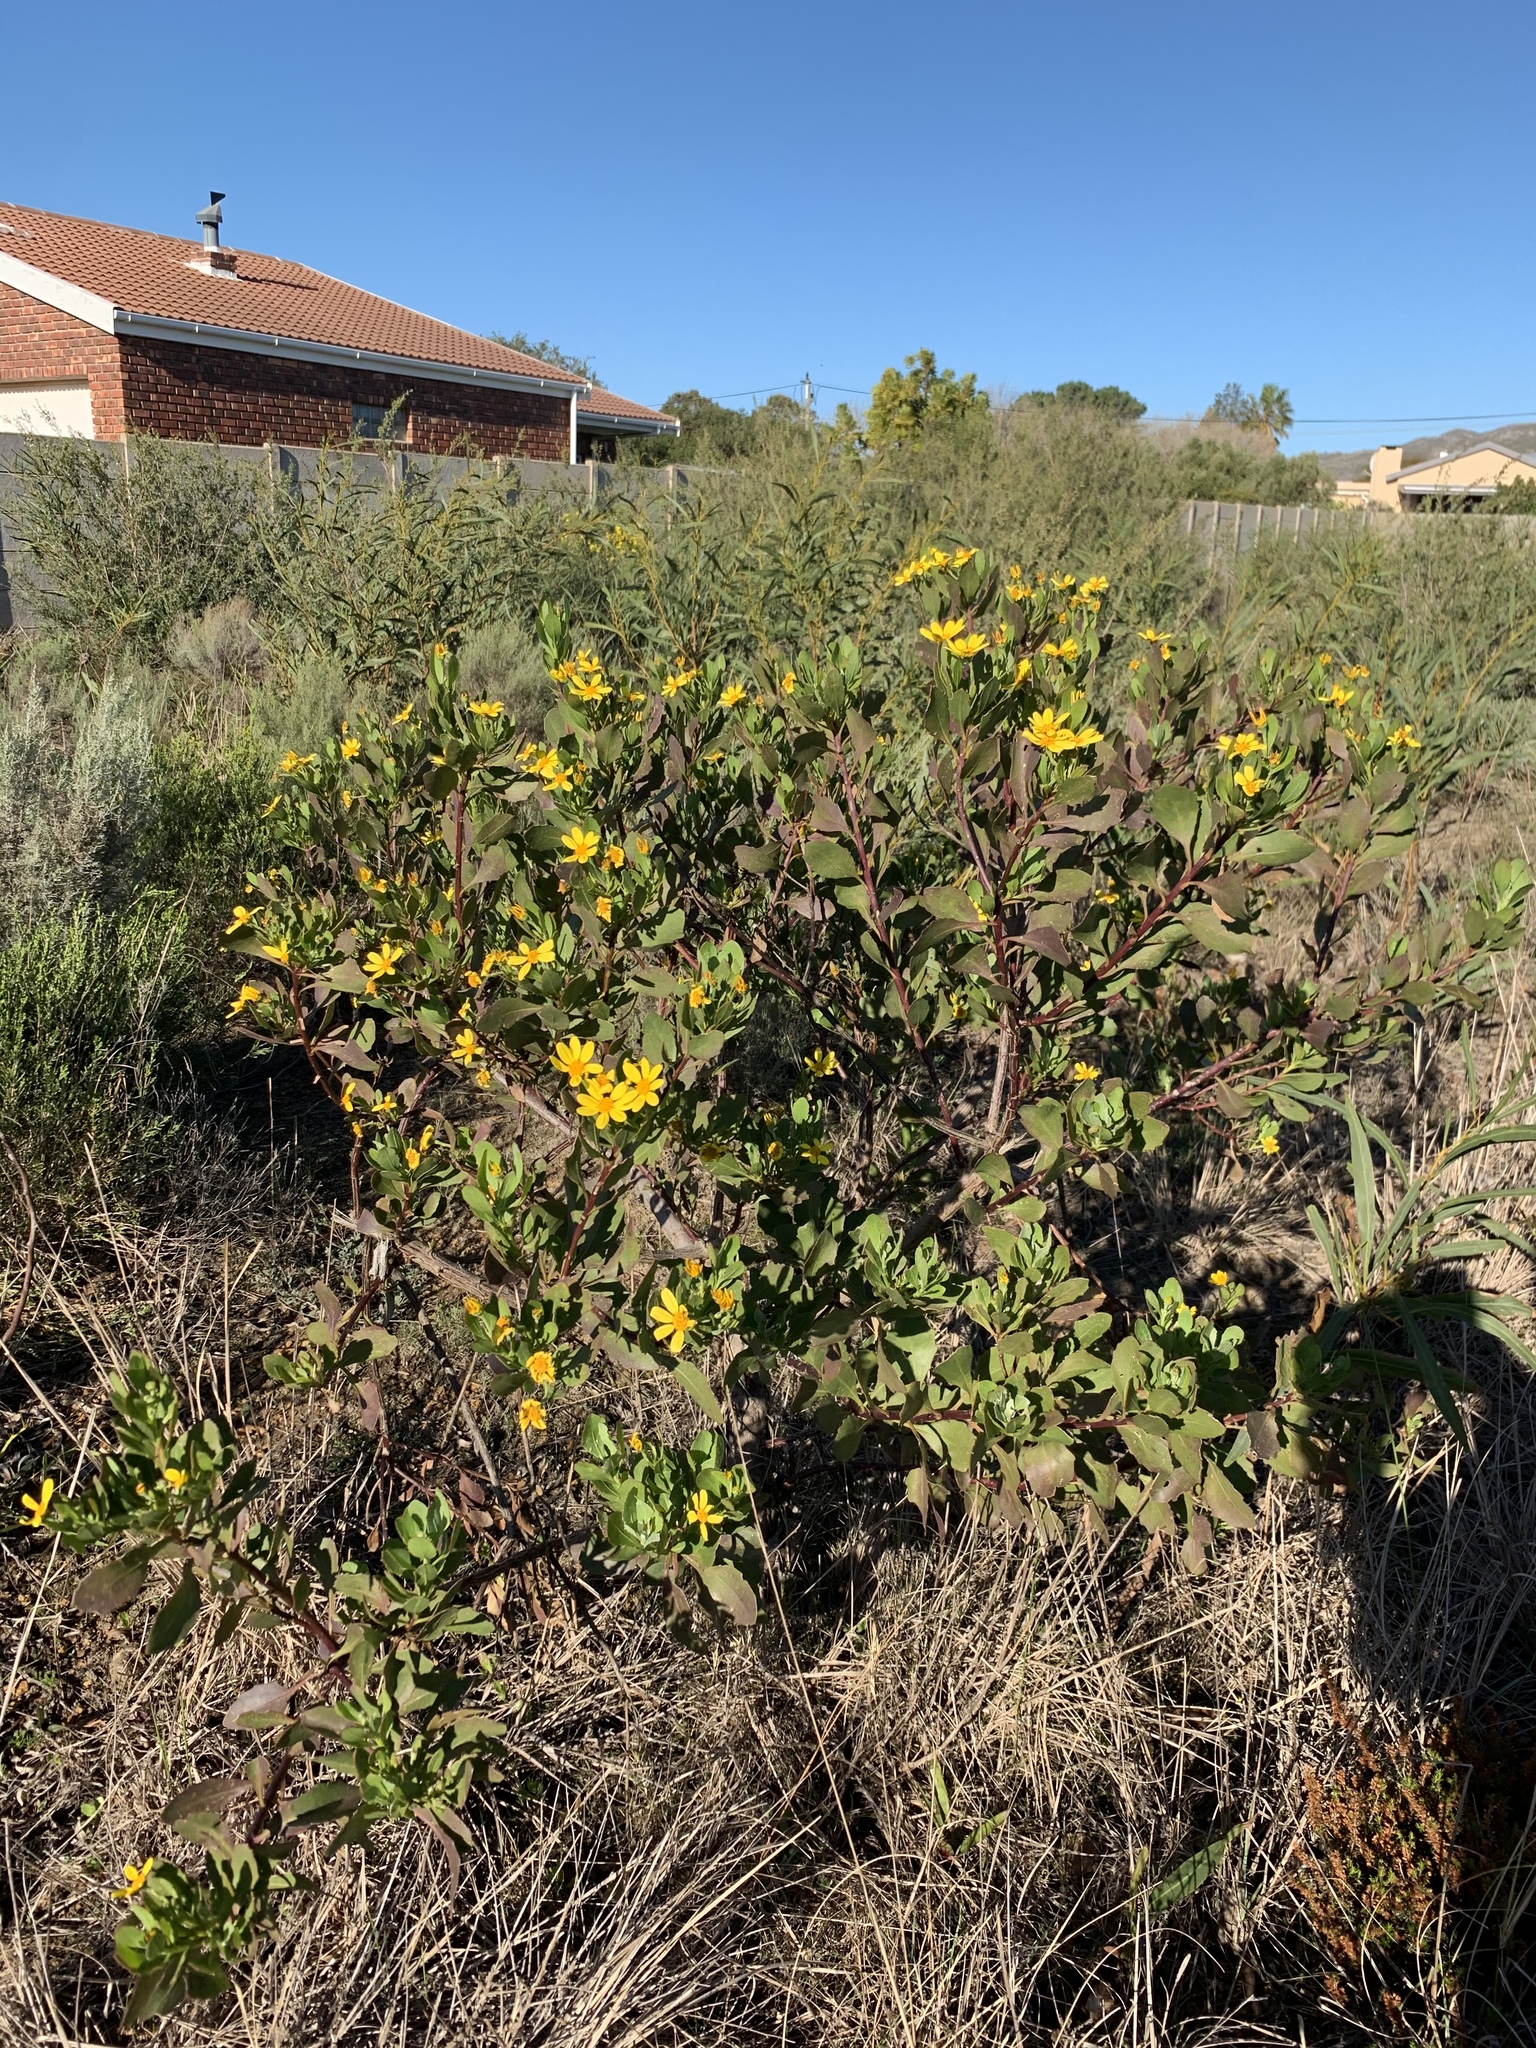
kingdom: Plantae
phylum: Tracheophyta
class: Magnoliopsida
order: Asterales
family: Asteraceae
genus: Osteospermum
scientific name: Osteospermum moniliferum
